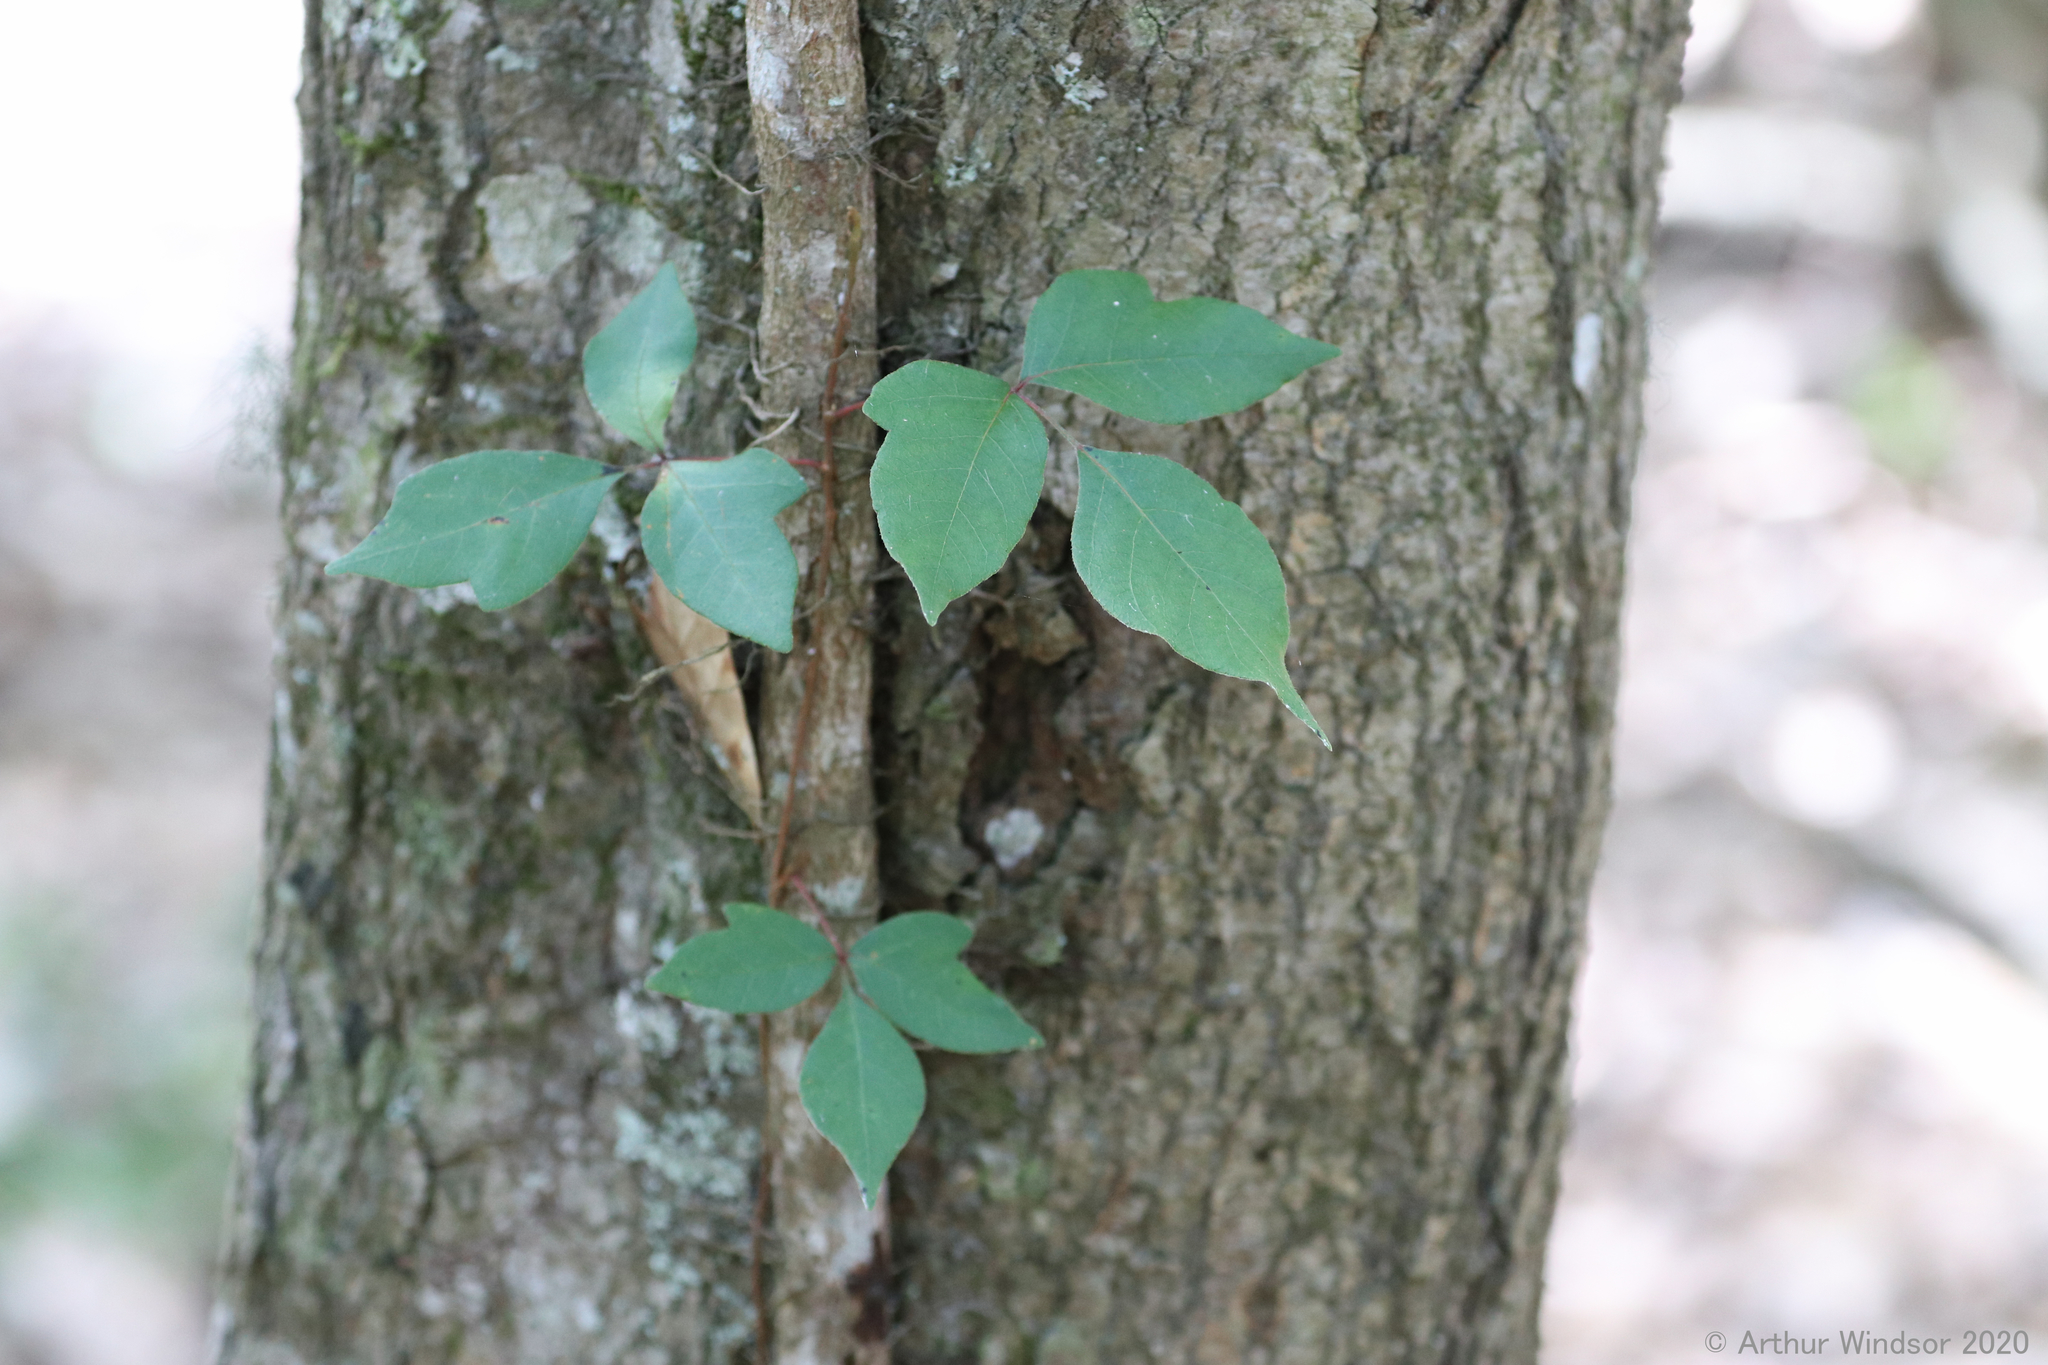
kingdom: Plantae
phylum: Tracheophyta
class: Magnoliopsida
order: Sapindales
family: Anacardiaceae
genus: Toxicodendron
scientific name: Toxicodendron radicans
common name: Poison ivy
